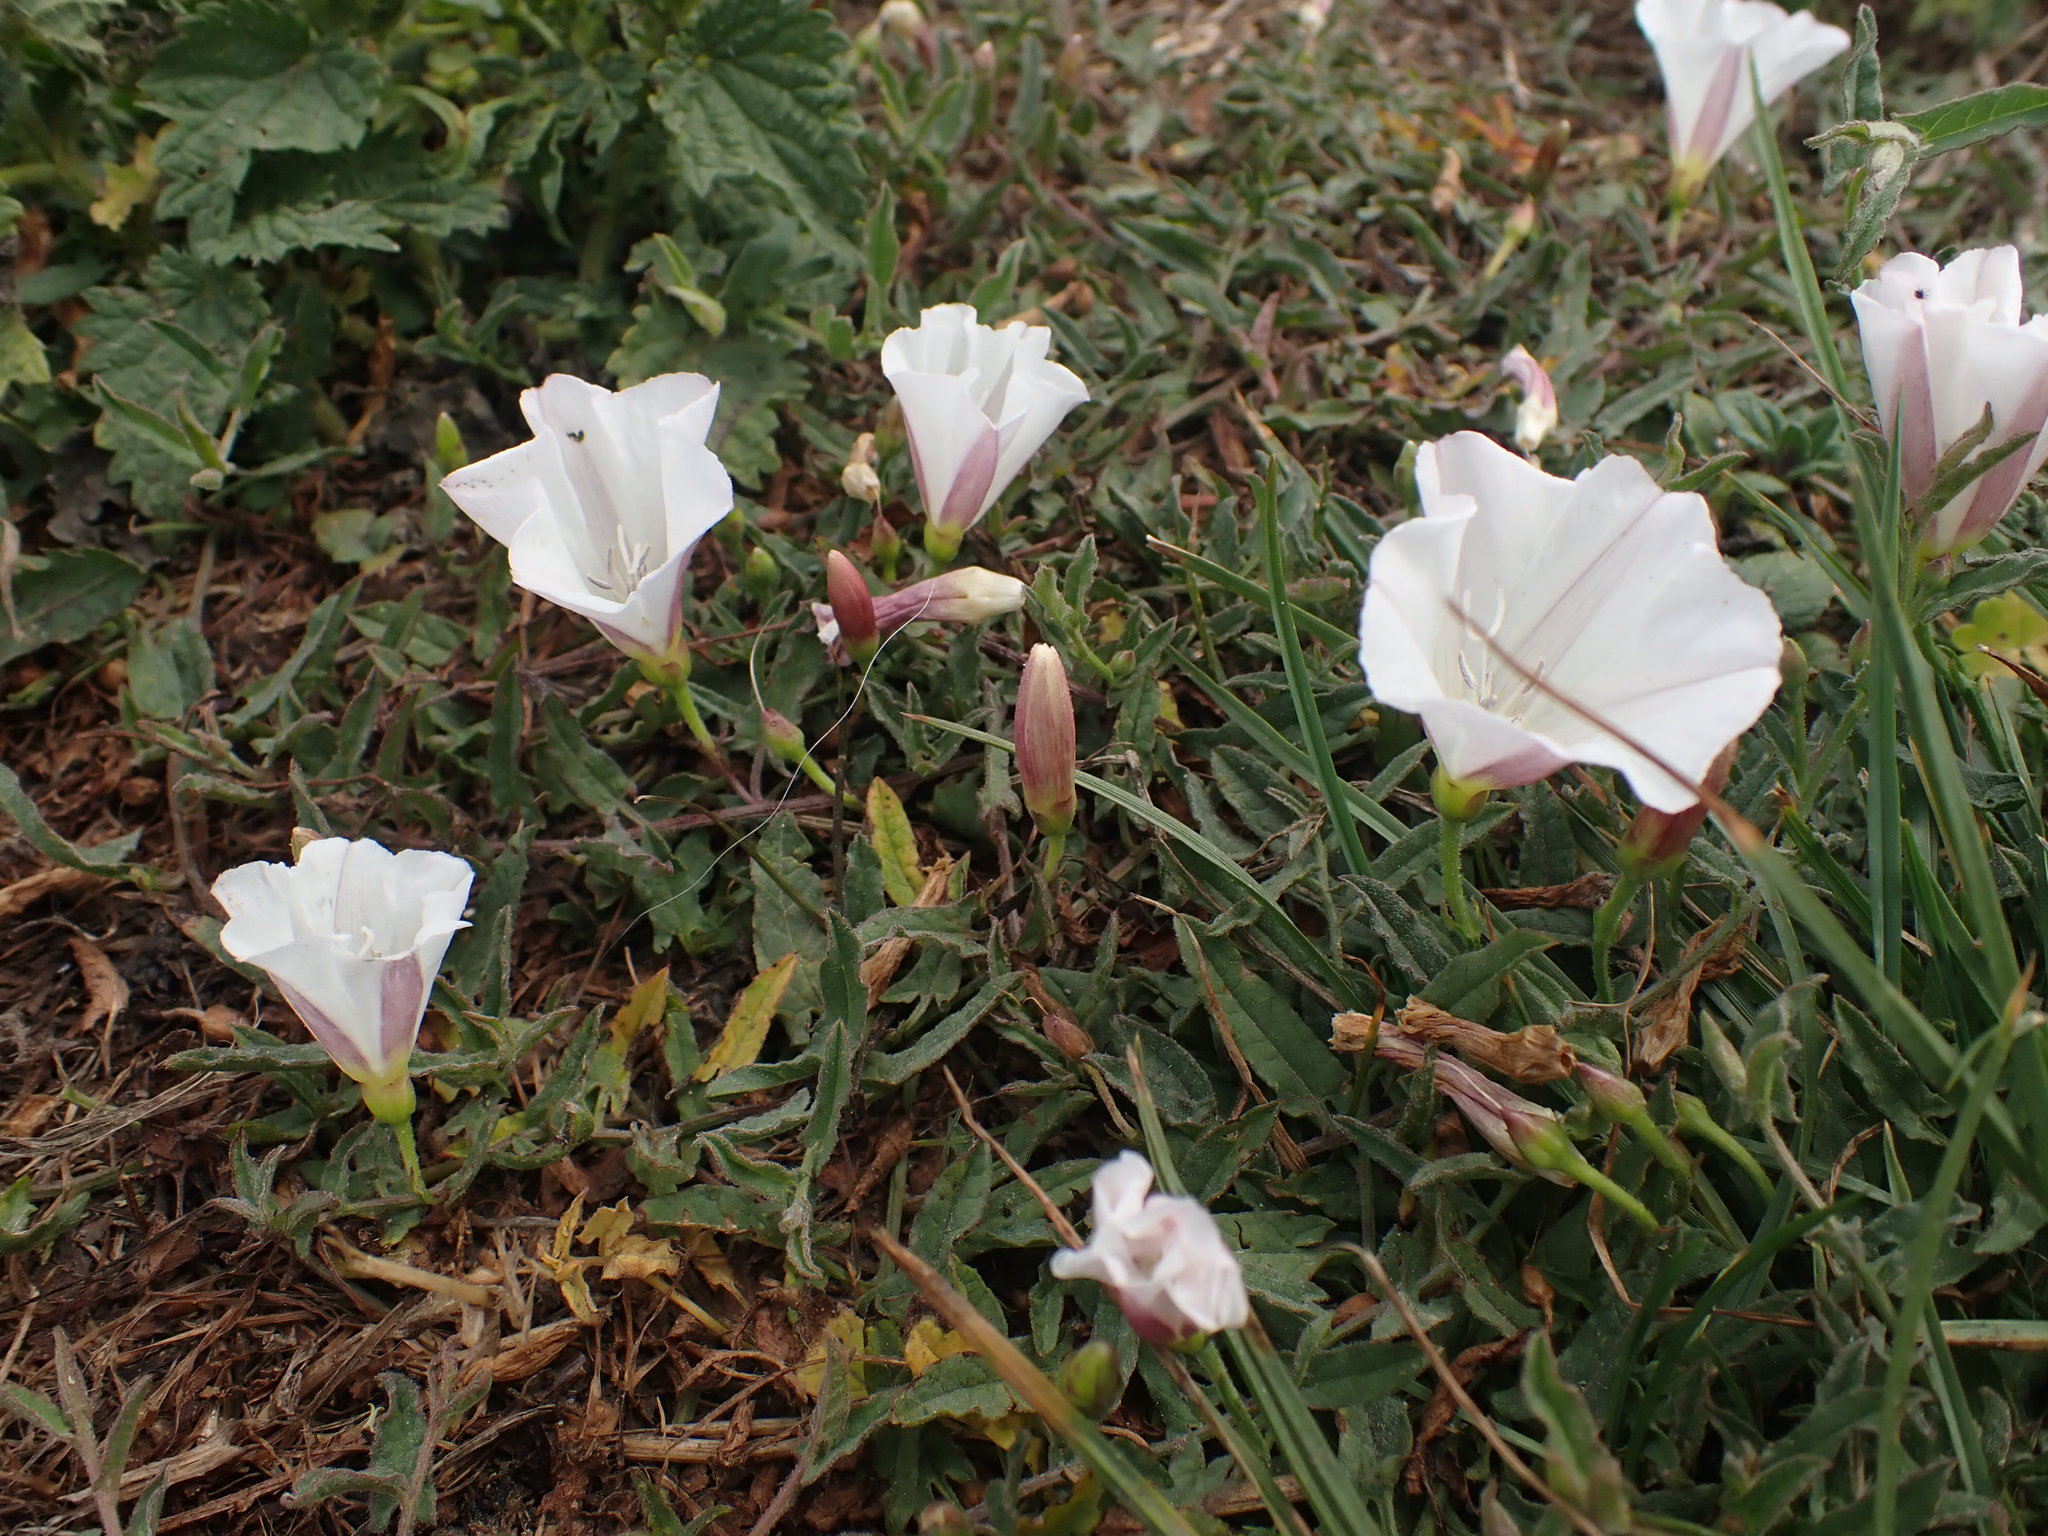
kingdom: Plantae
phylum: Tracheophyta
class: Magnoliopsida
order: Solanales
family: Convolvulaceae
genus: Convolvulus
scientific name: Convolvulus arvensis
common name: Field bindweed
